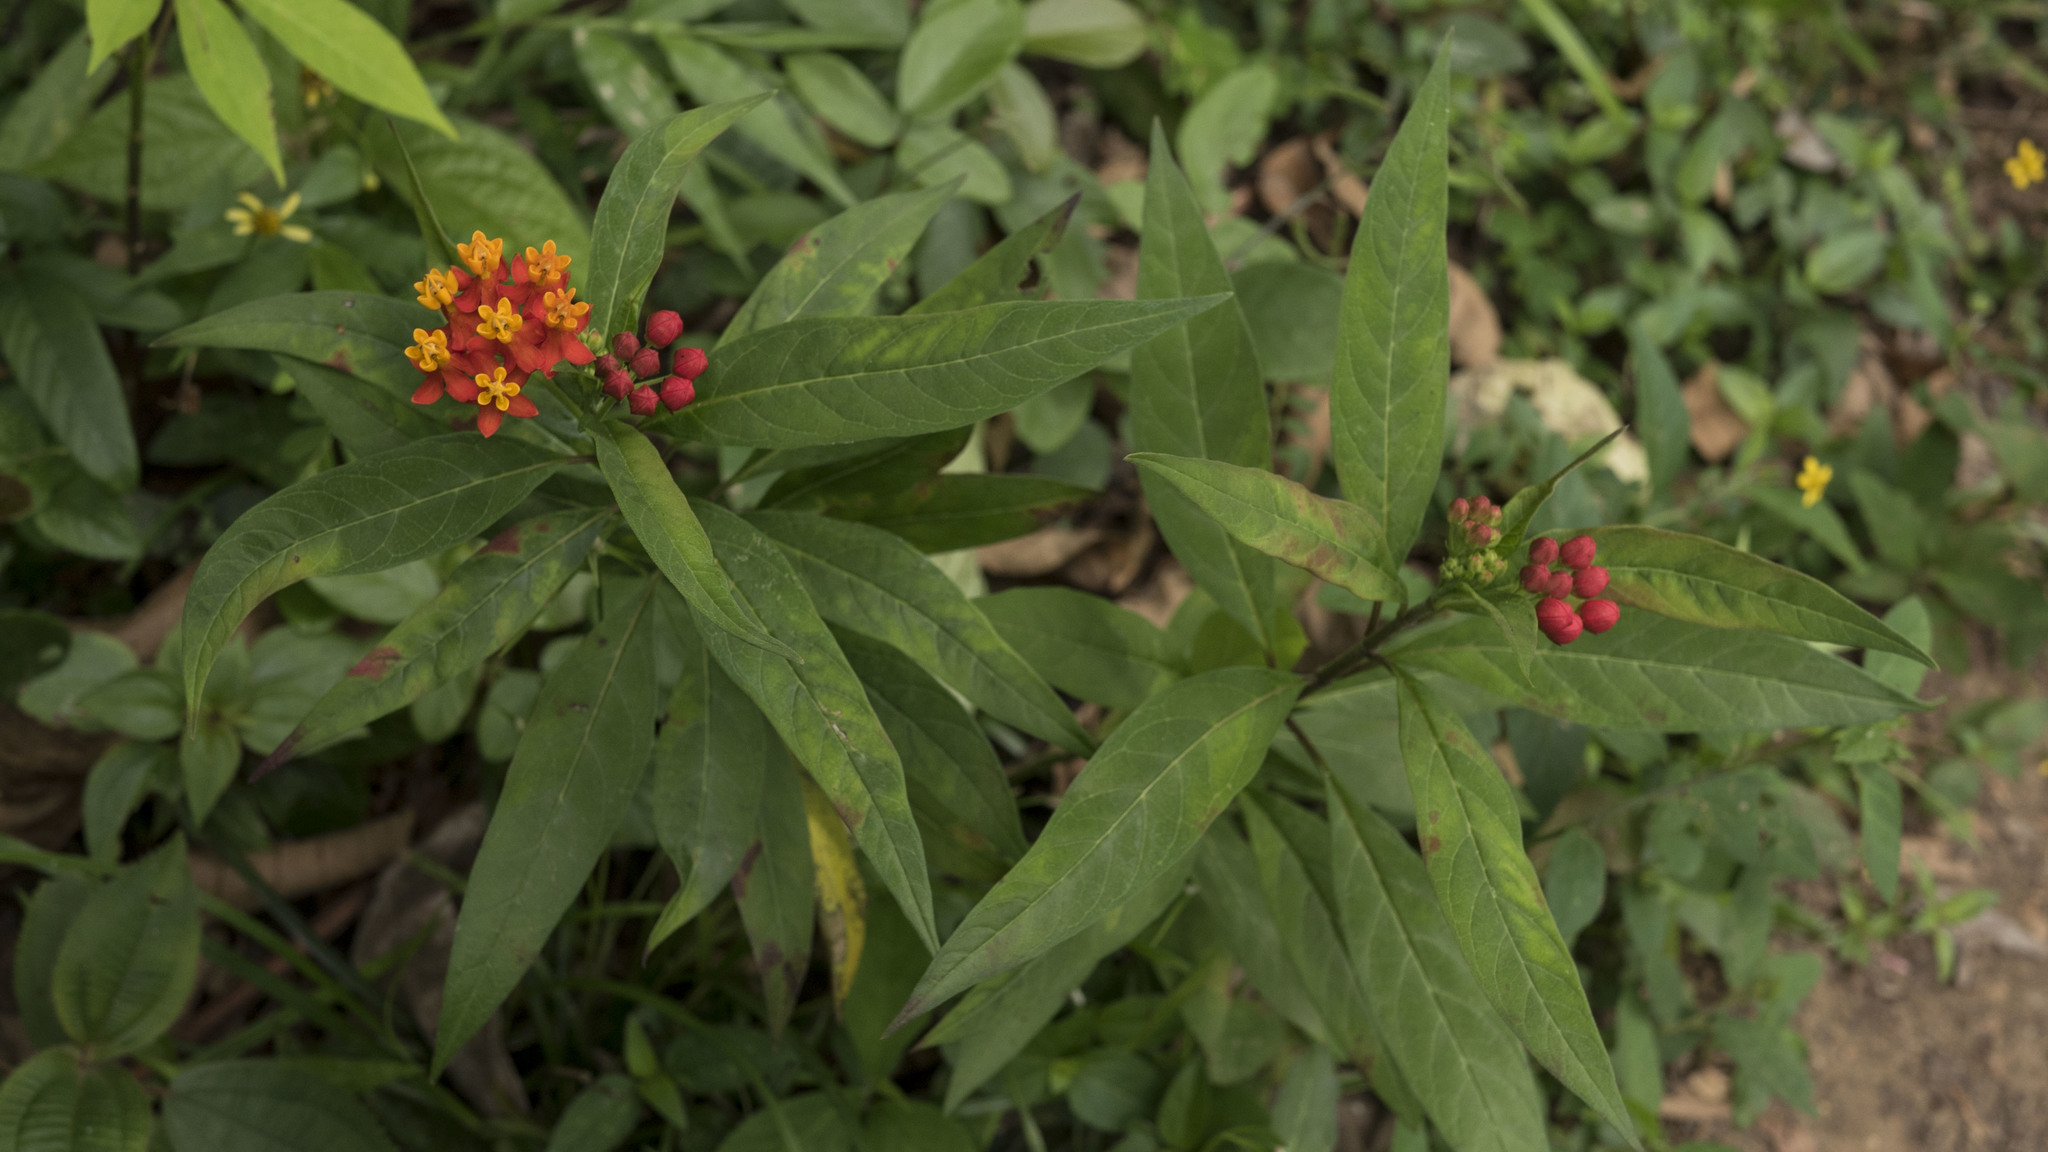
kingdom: Plantae
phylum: Tracheophyta
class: Magnoliopsida
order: Gentianales
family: Apocynaceae
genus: Asclepias
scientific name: Asclepias curassavica
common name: Bloodflower
